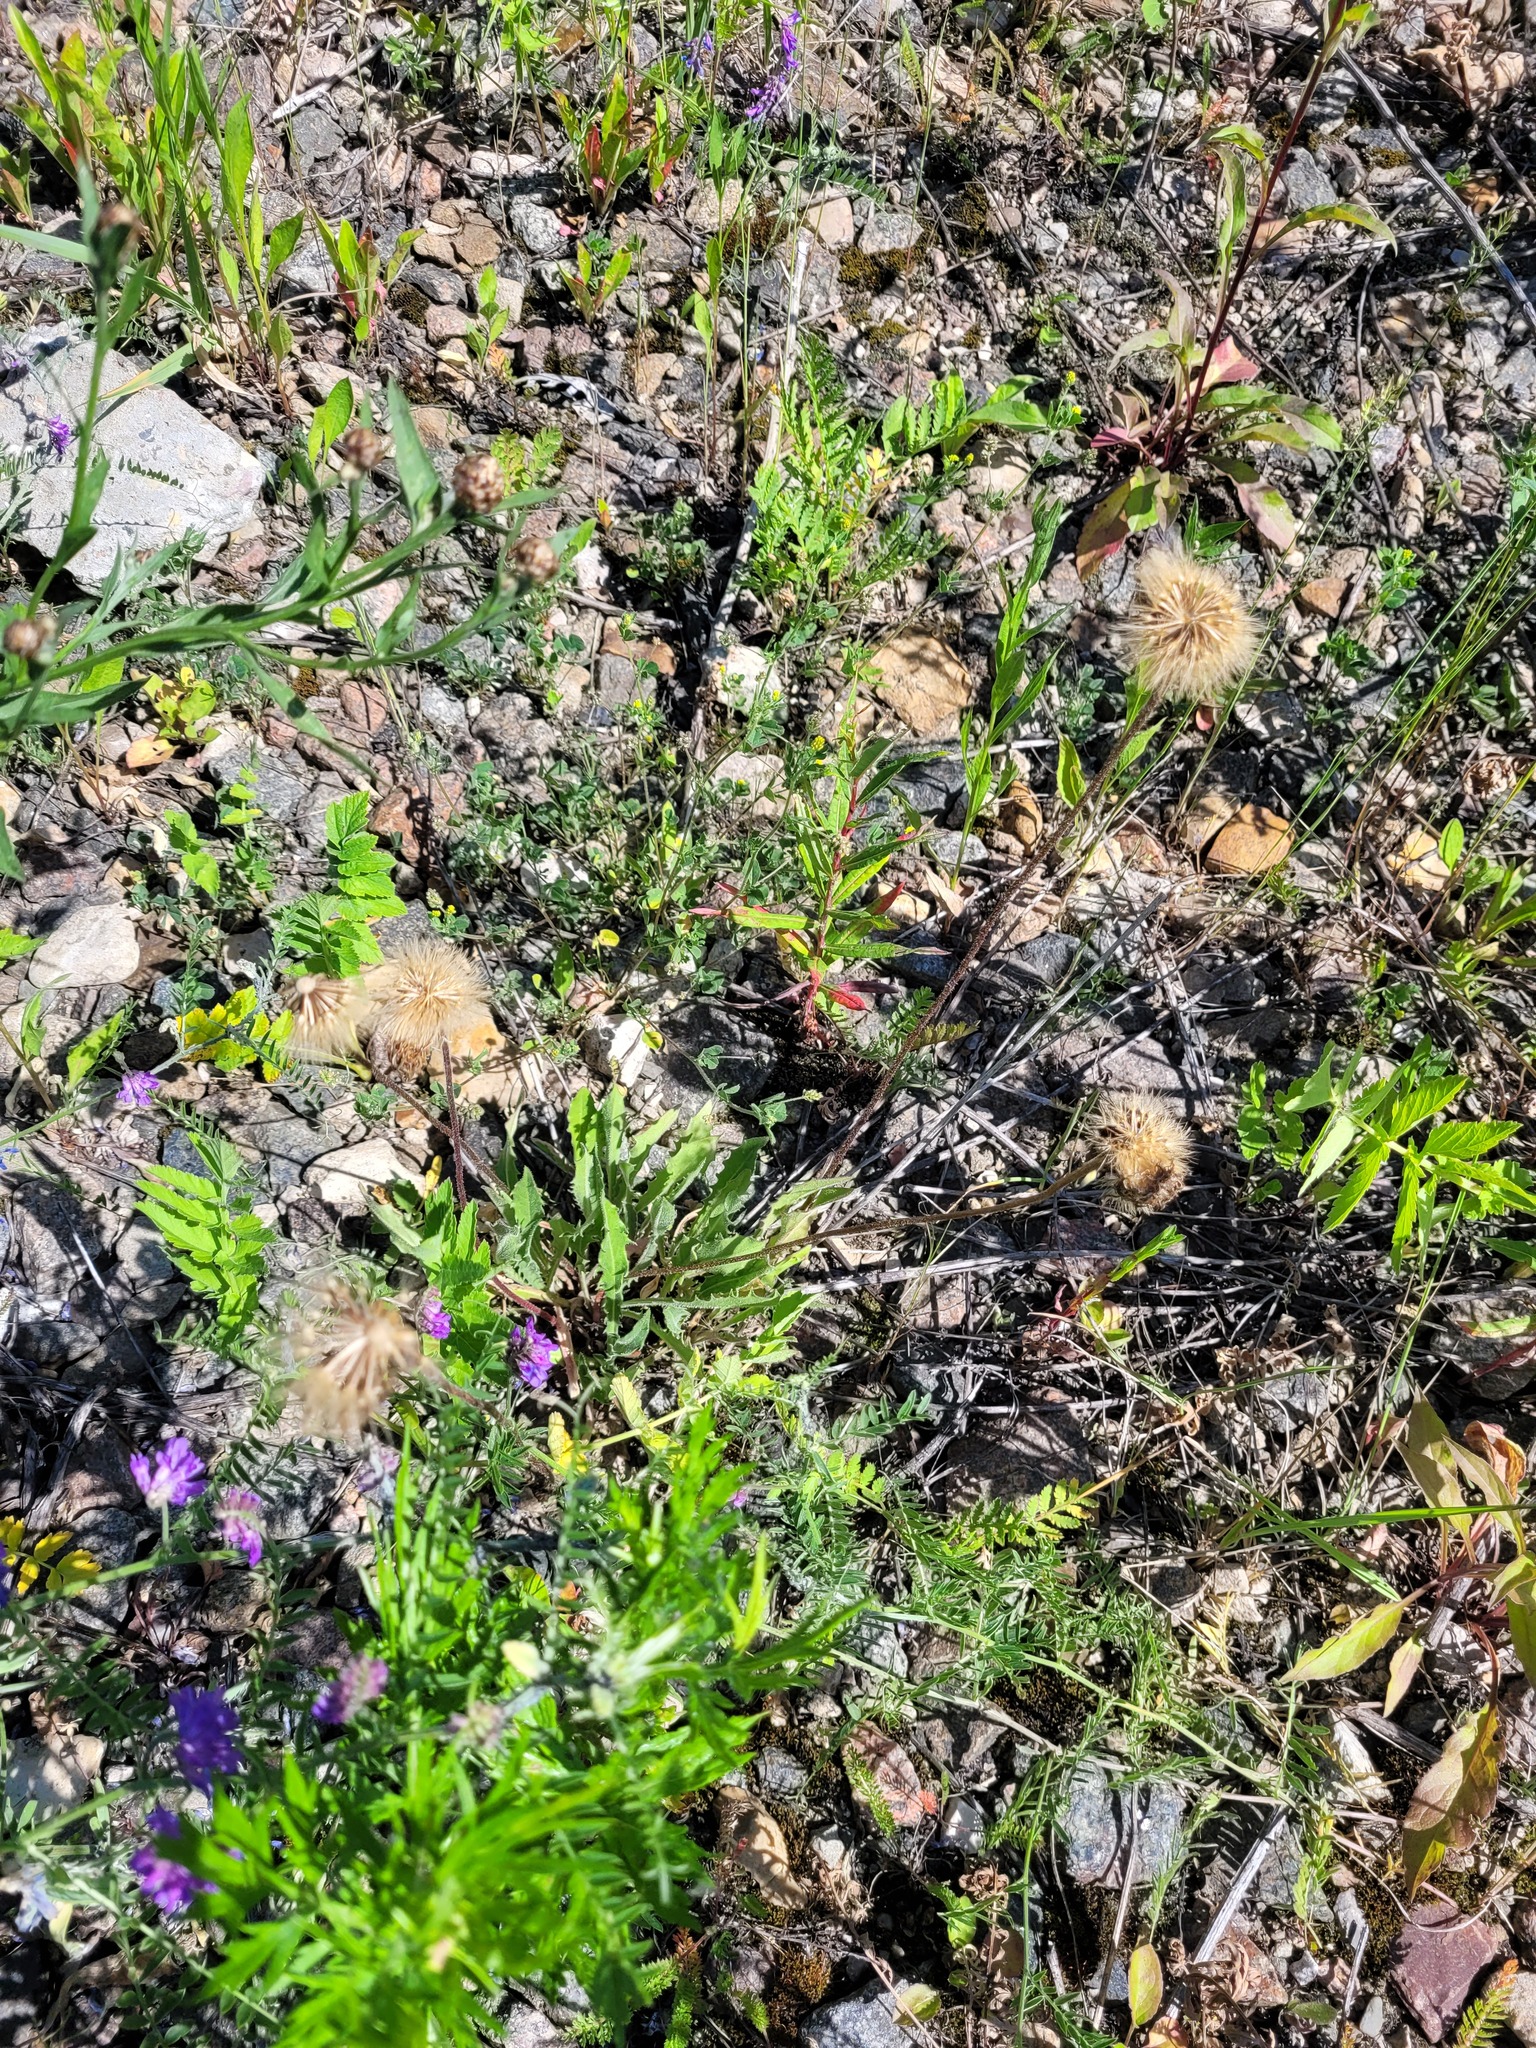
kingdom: Plantae
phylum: Tracheophyta
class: Magnoliopsida
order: Asterales
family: Asteraceae
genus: Leontodon
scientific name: Leontodon hispidus
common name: Rough hawkbit
